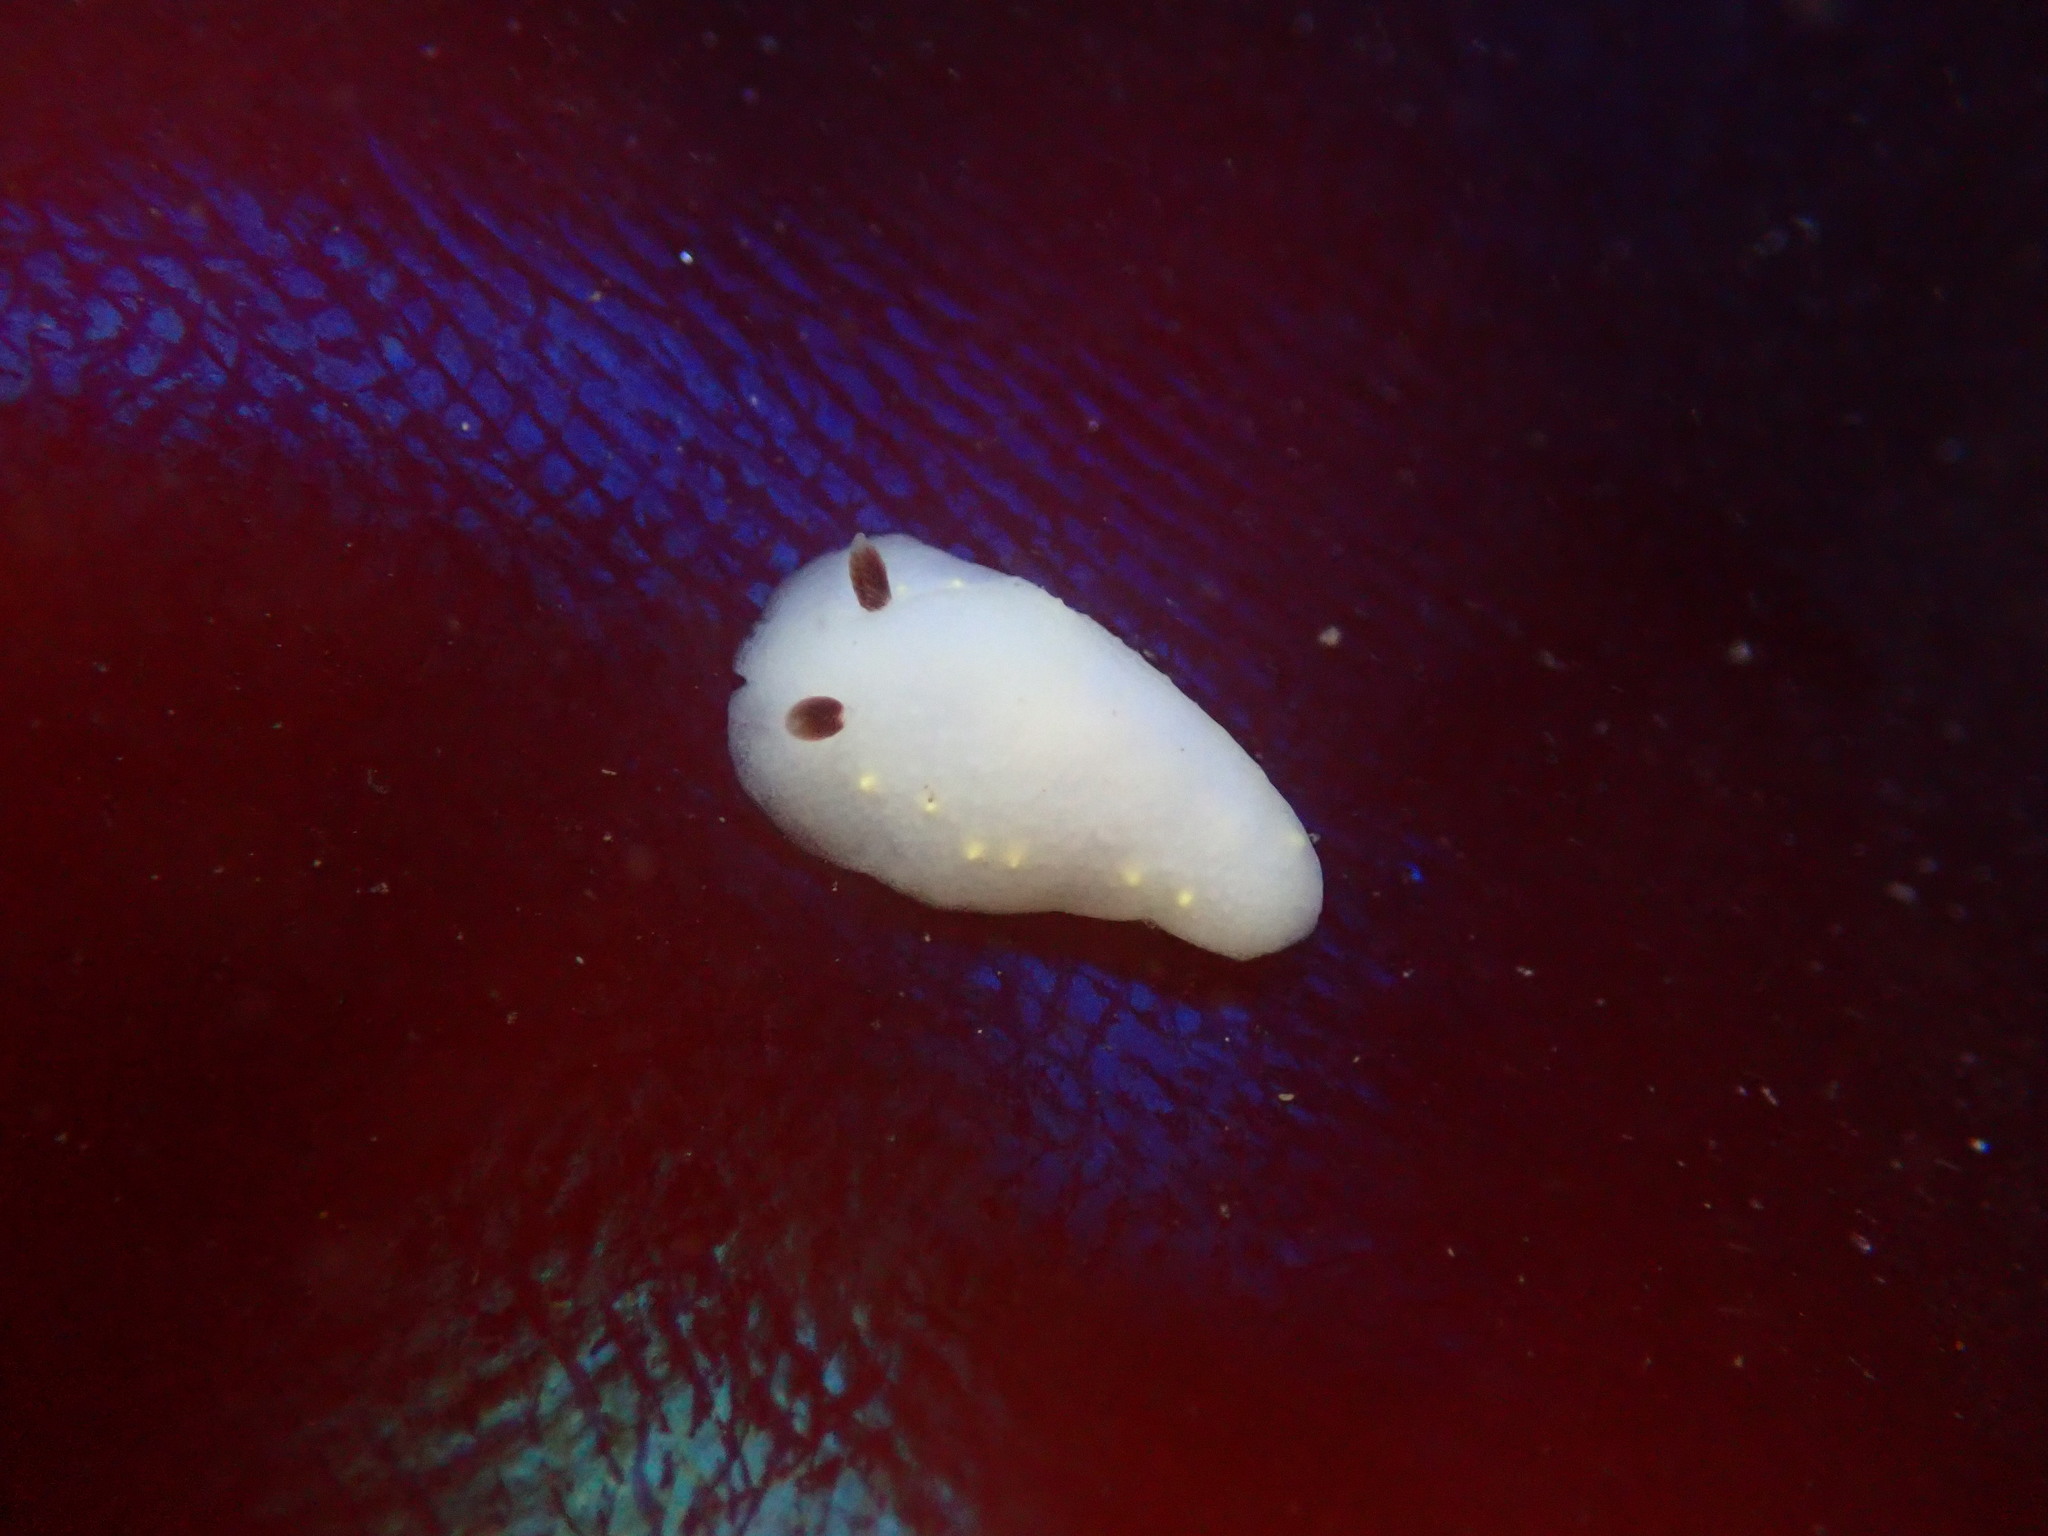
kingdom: Animalia
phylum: Mollusca
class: Gastropoda
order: Nudibranchia
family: Cadlinidae
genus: Cadlina
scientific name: Cadlina flavomaculata
